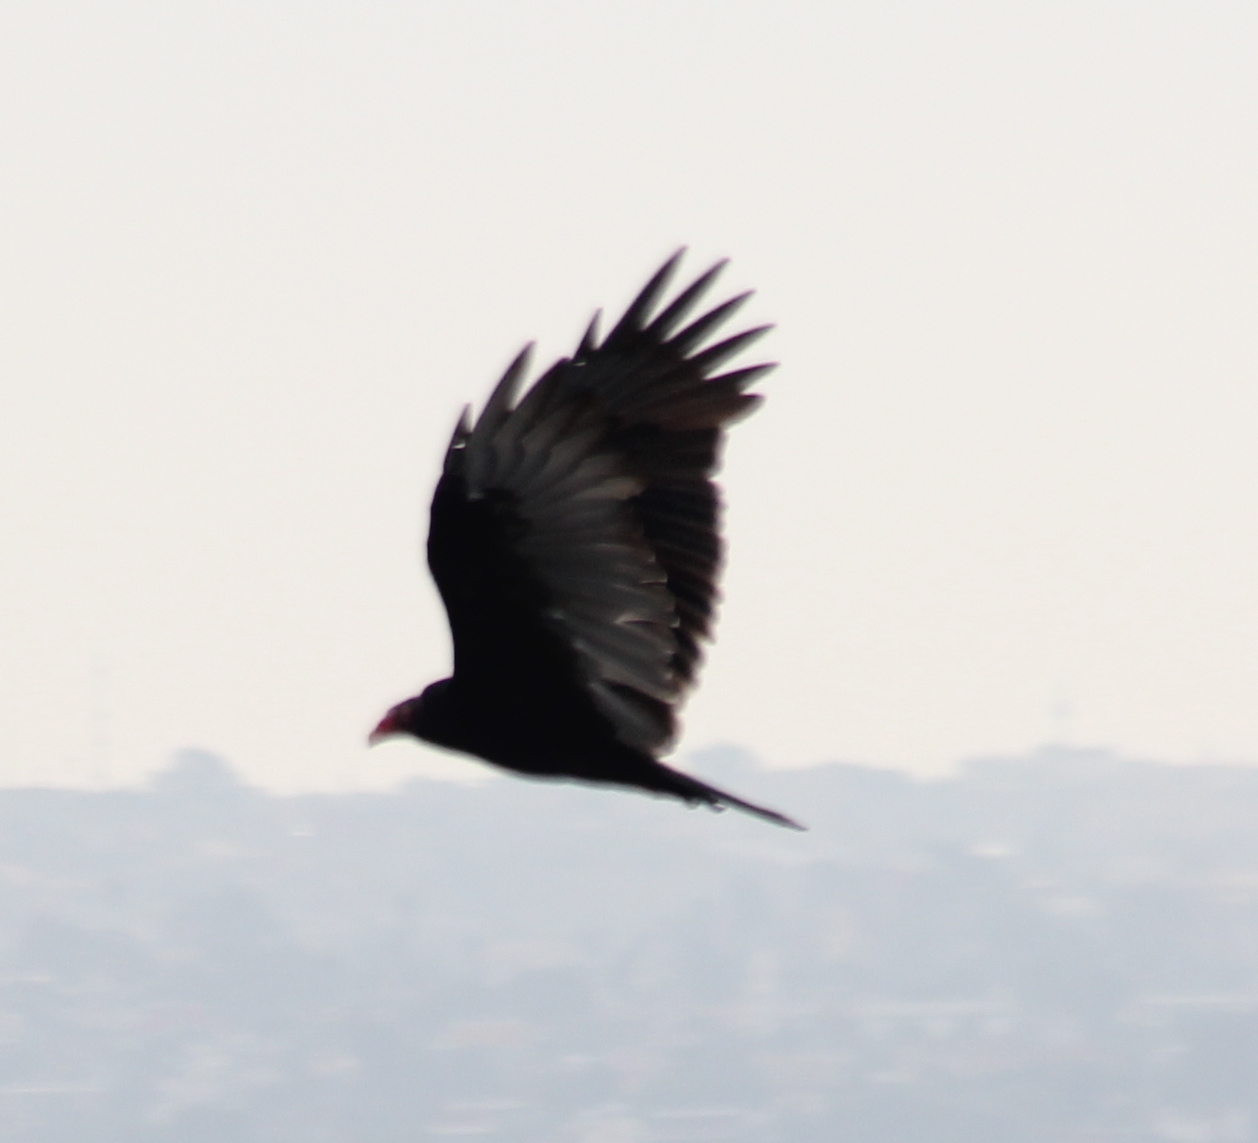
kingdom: Animalia
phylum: Chordata
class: Aves
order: Accipitriformes
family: Cathartidae
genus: Cathartes
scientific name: Cathartes aura
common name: Turkey vulture
